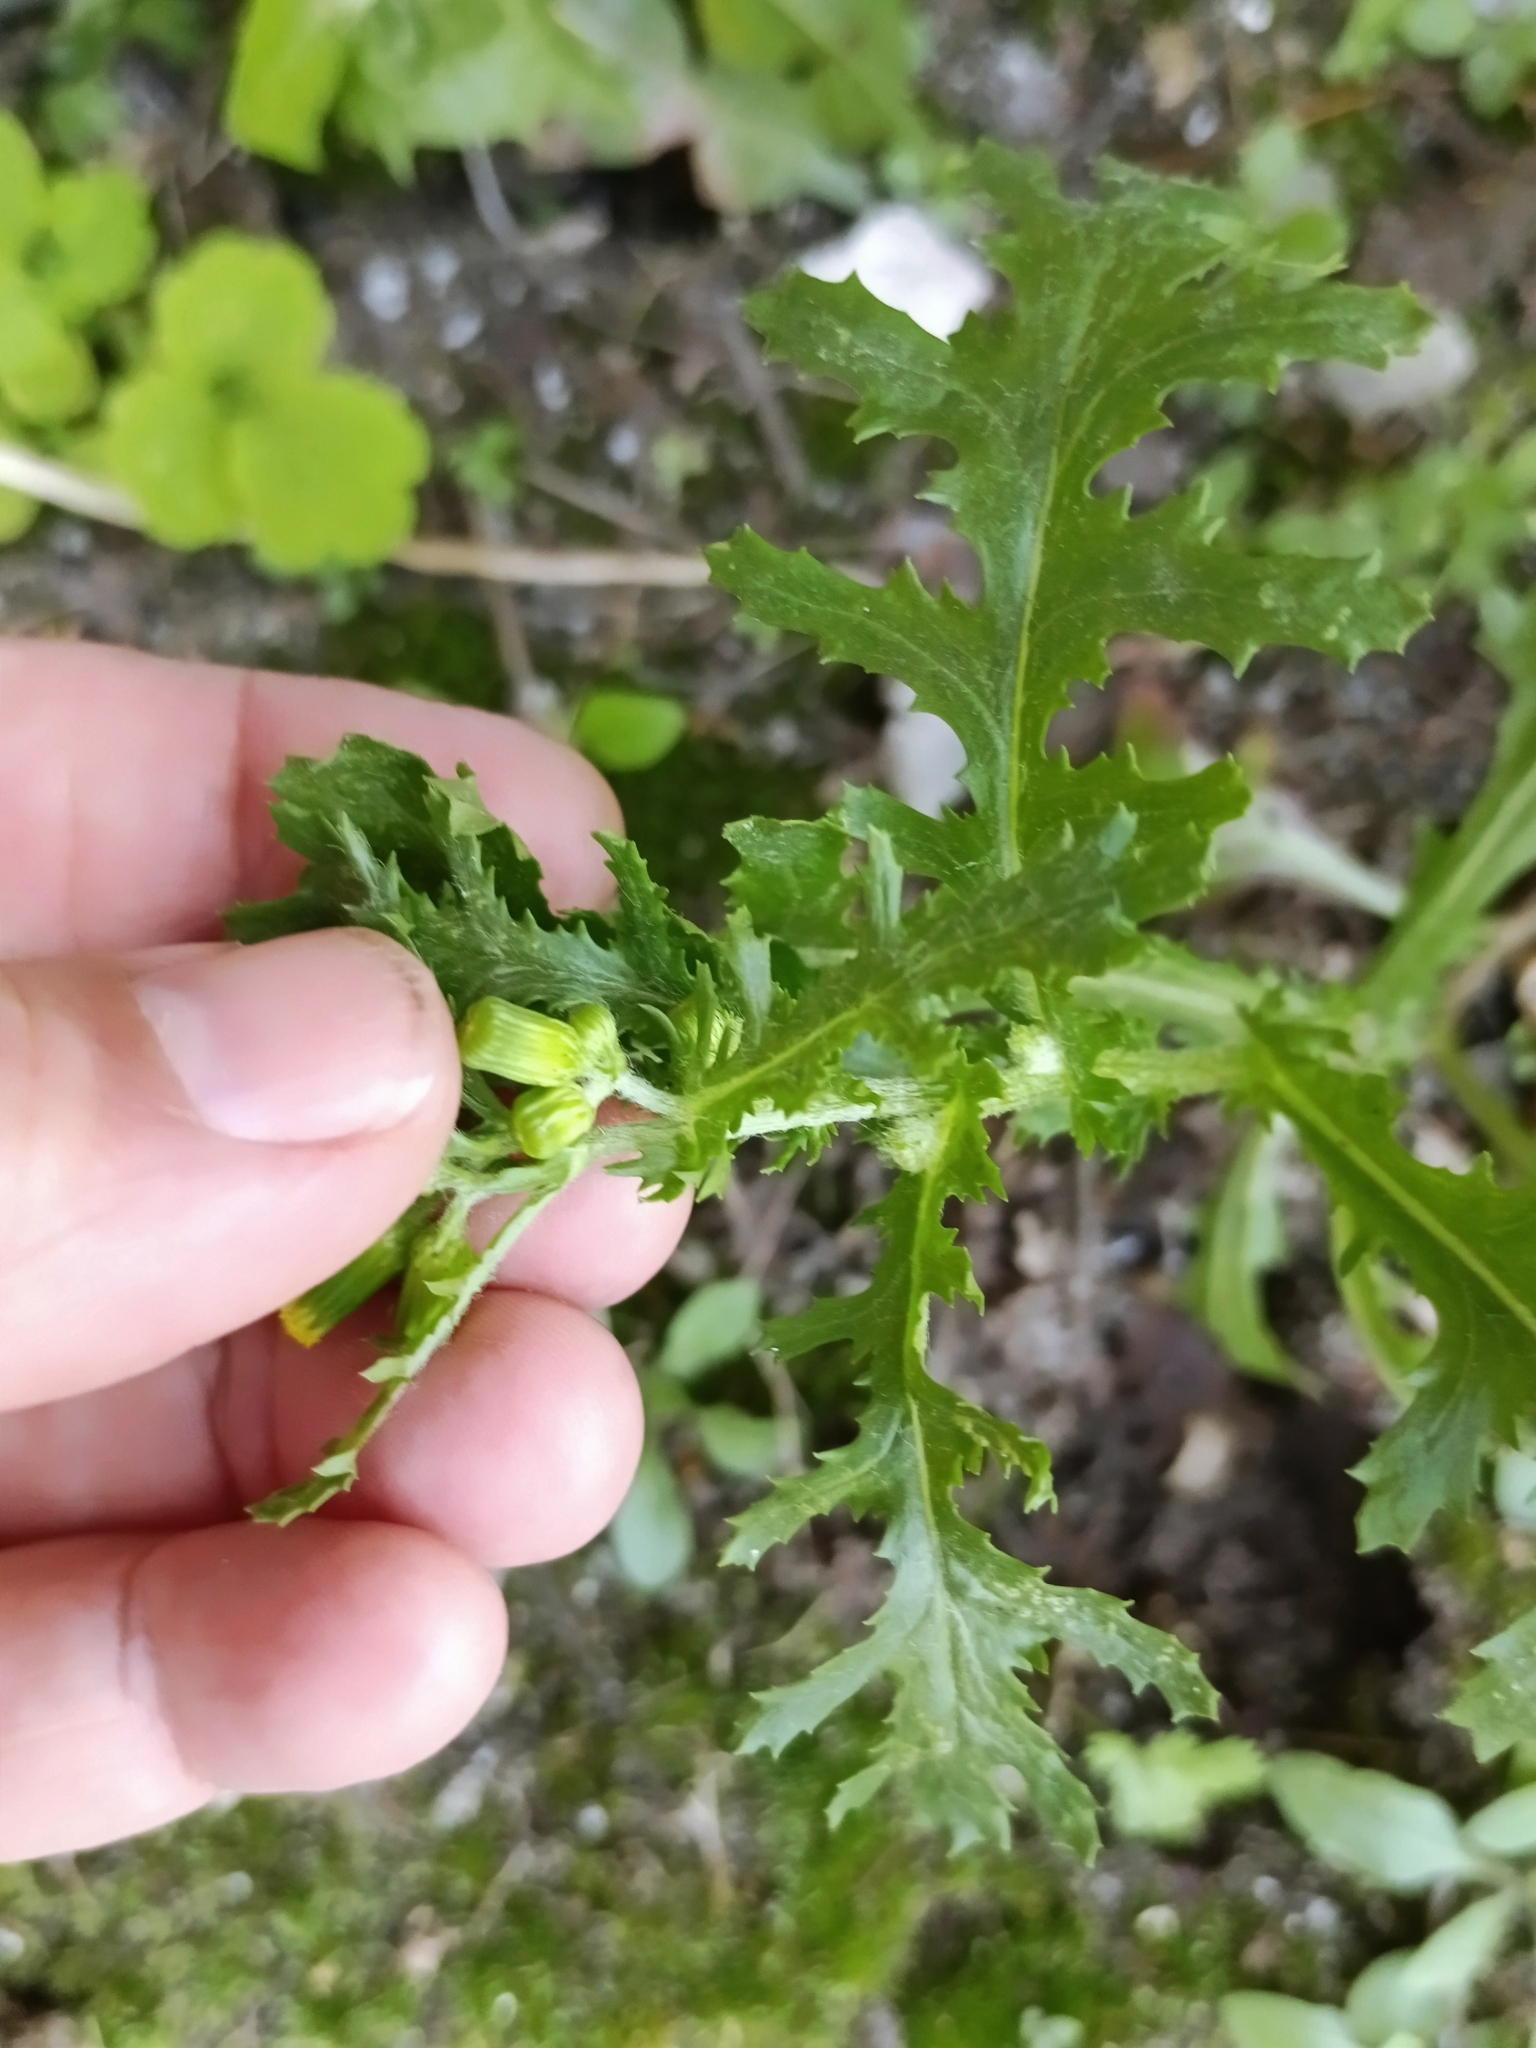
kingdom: Plantae
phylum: Tracheophyta
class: Magnoliopsida
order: Asterales
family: Asteraceae
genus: Senecio
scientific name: Senecio vulgaris
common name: Old-man-in-the-spring
